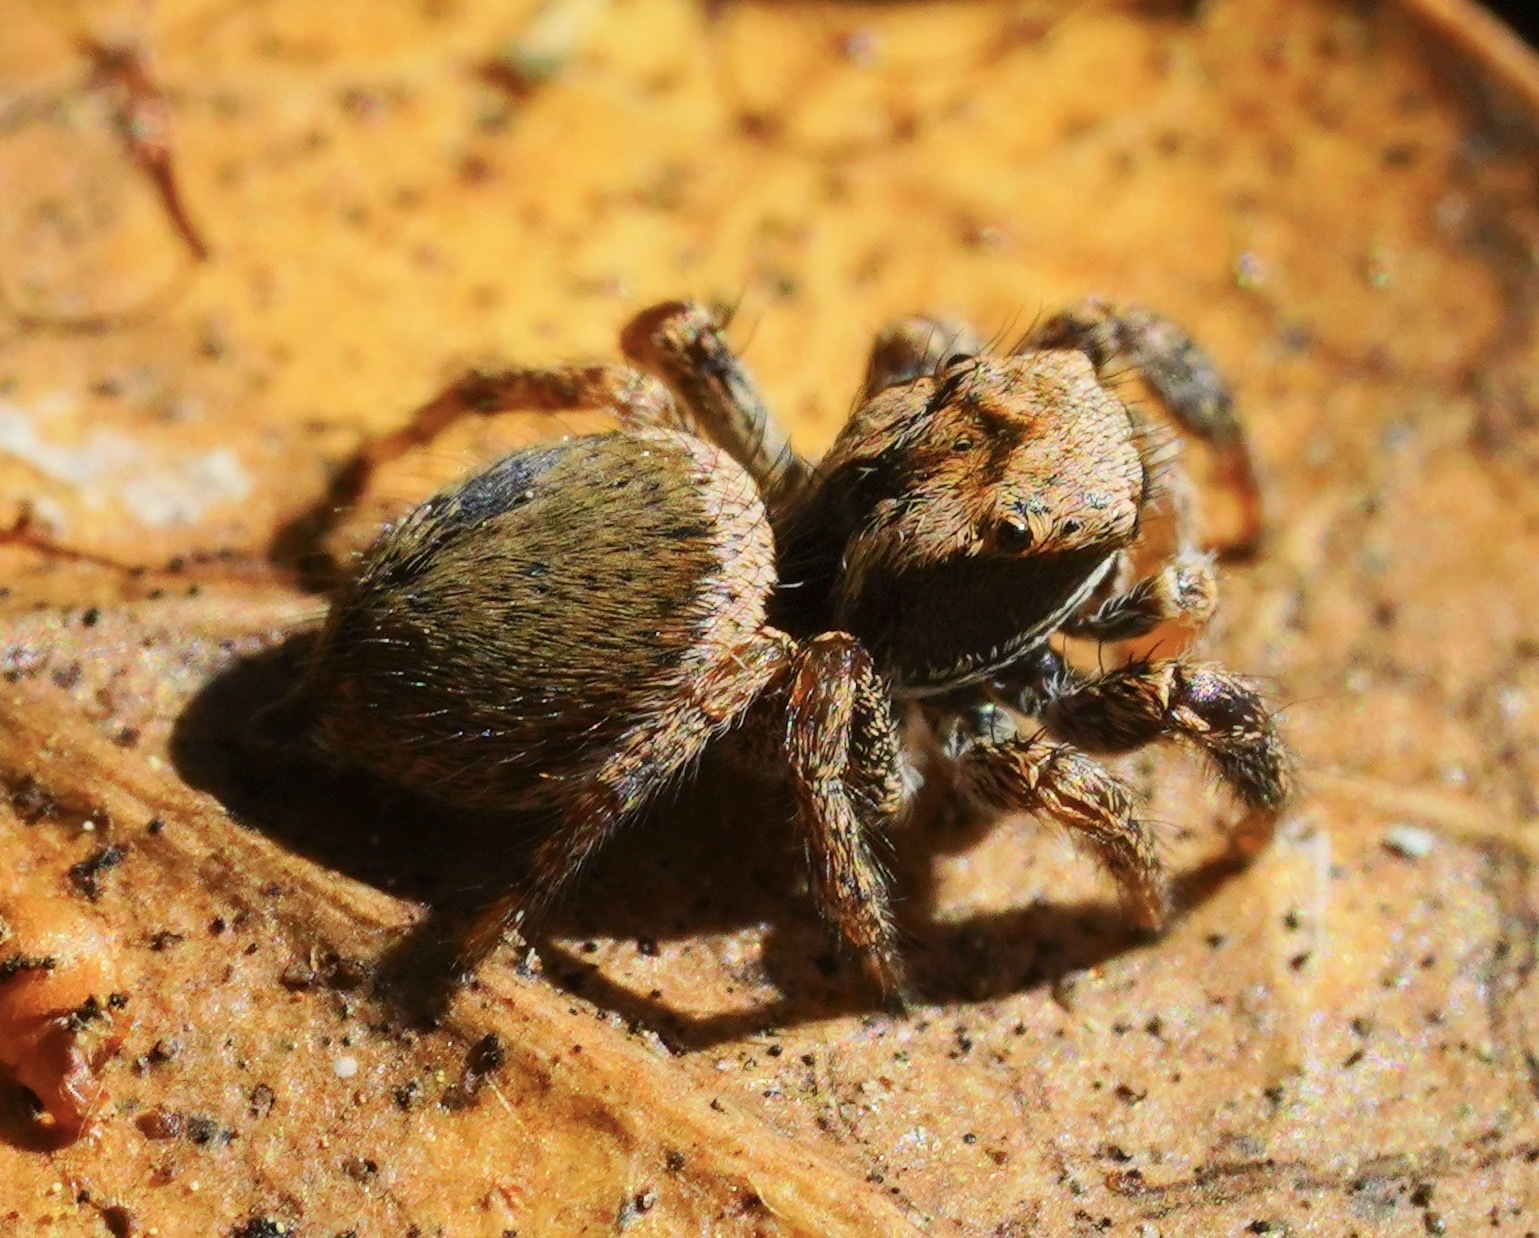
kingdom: Animalia
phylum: Arthropoda
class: Arachnida
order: Araneae
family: Salticidae
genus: Habronattus
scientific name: Habronattus oregonensis
